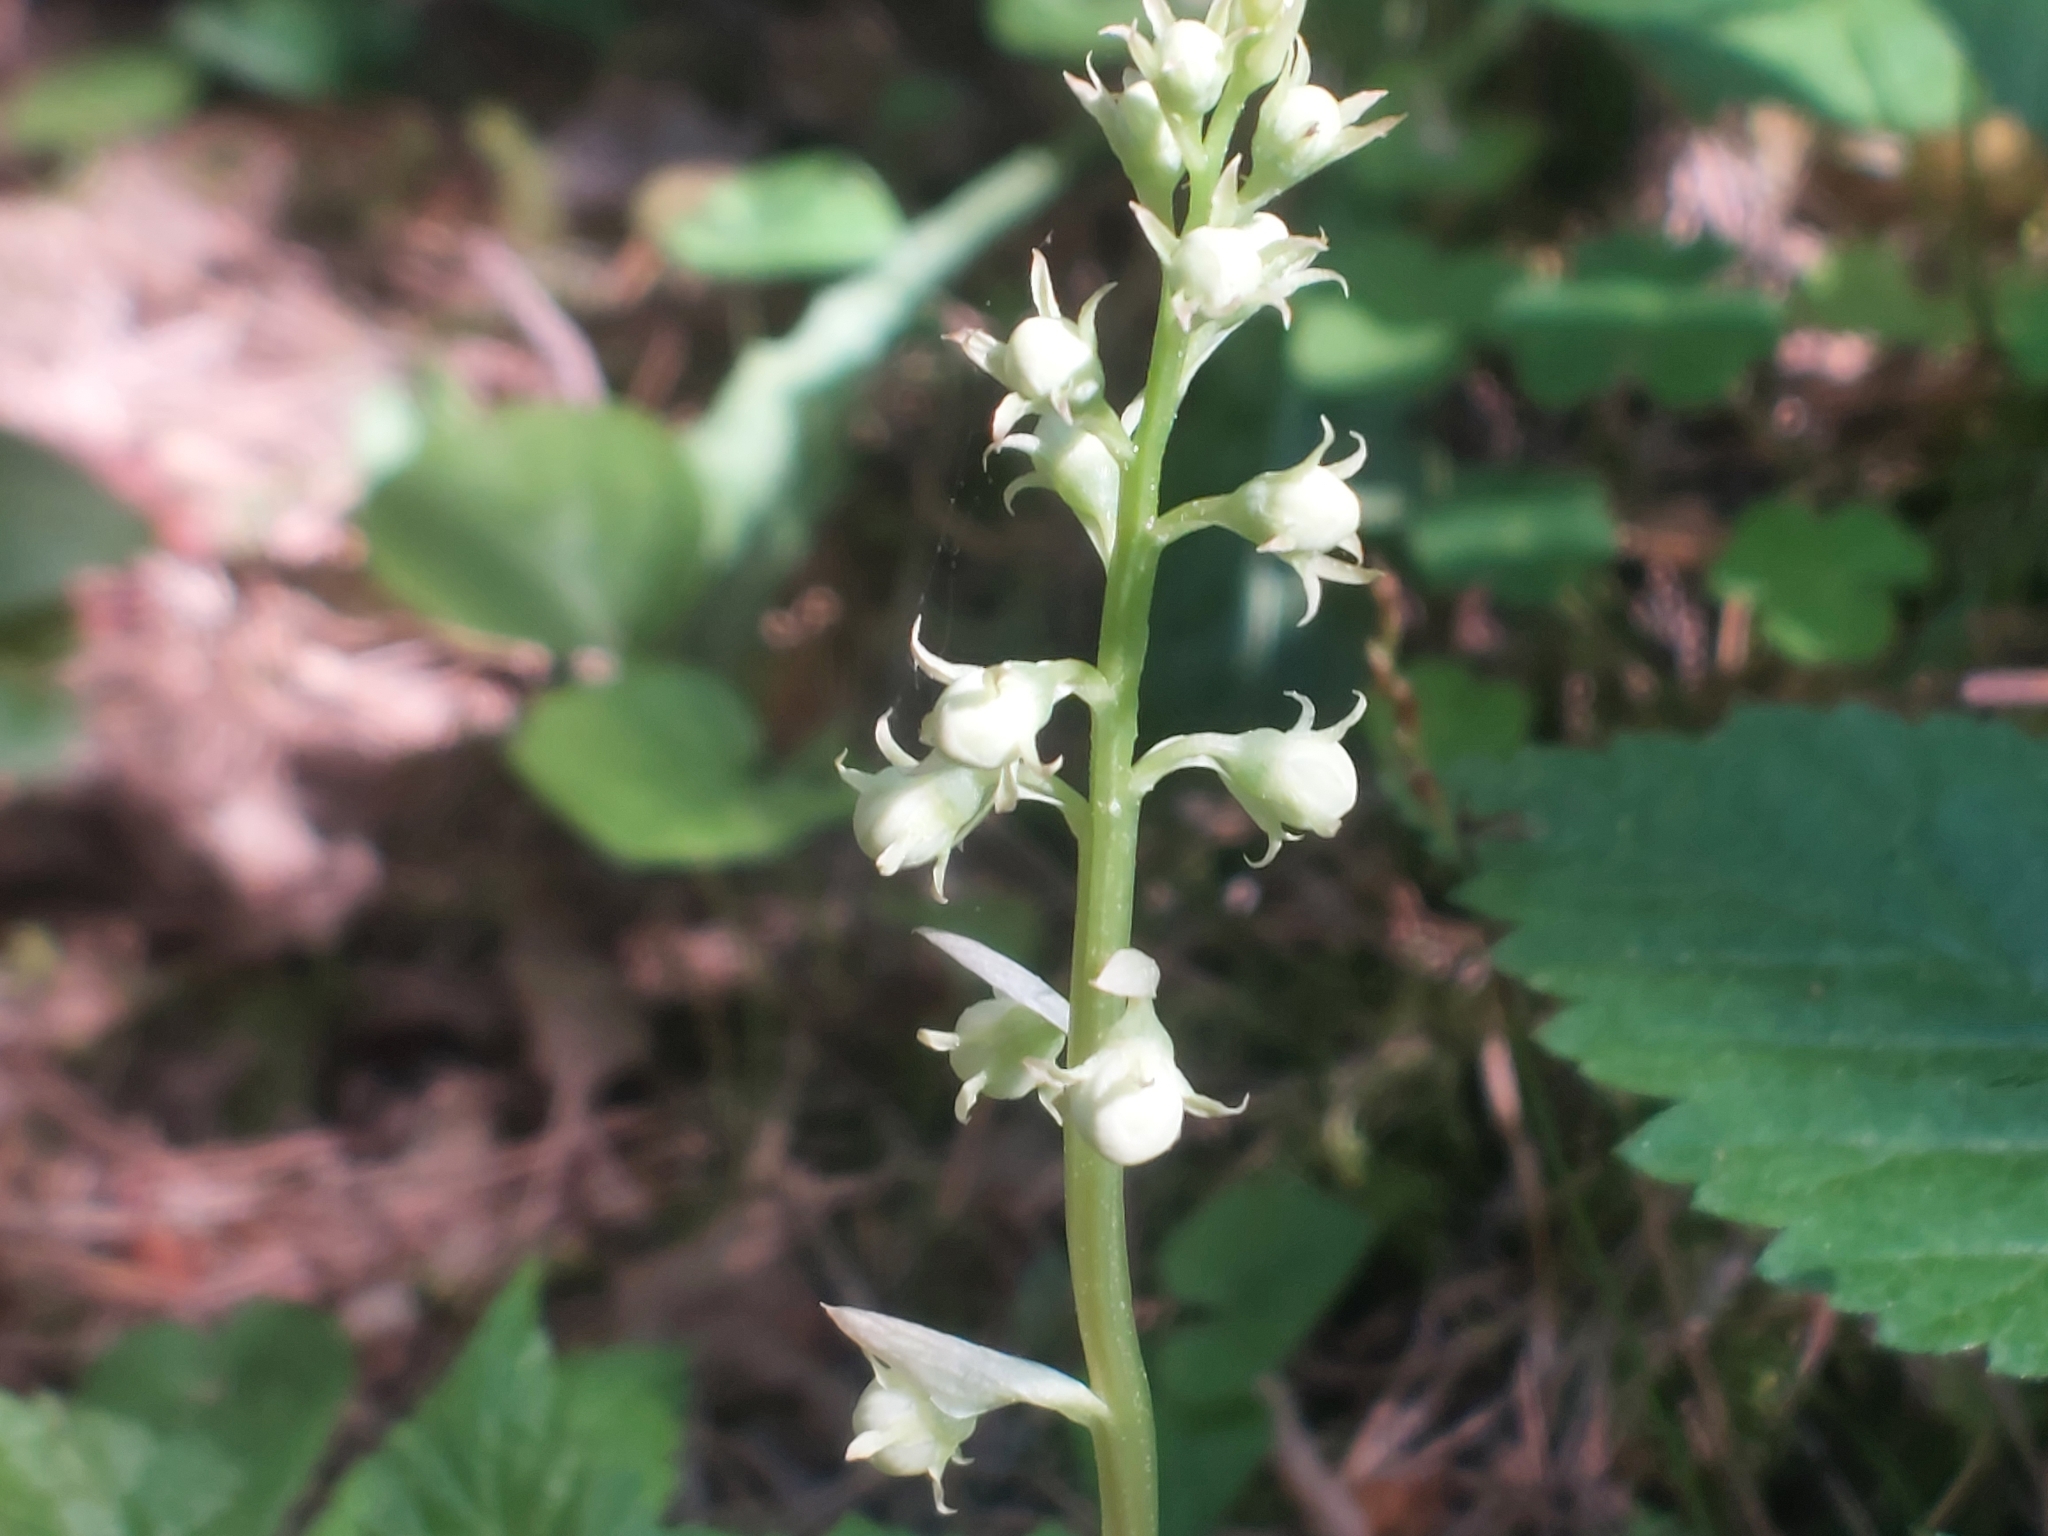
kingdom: Plantae
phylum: Tracheophyta
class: Magnoliopsida
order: Ericales
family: Ericaceae
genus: Pyrola
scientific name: Pyrola rotundifolia
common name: Round-leaved wintergreen
